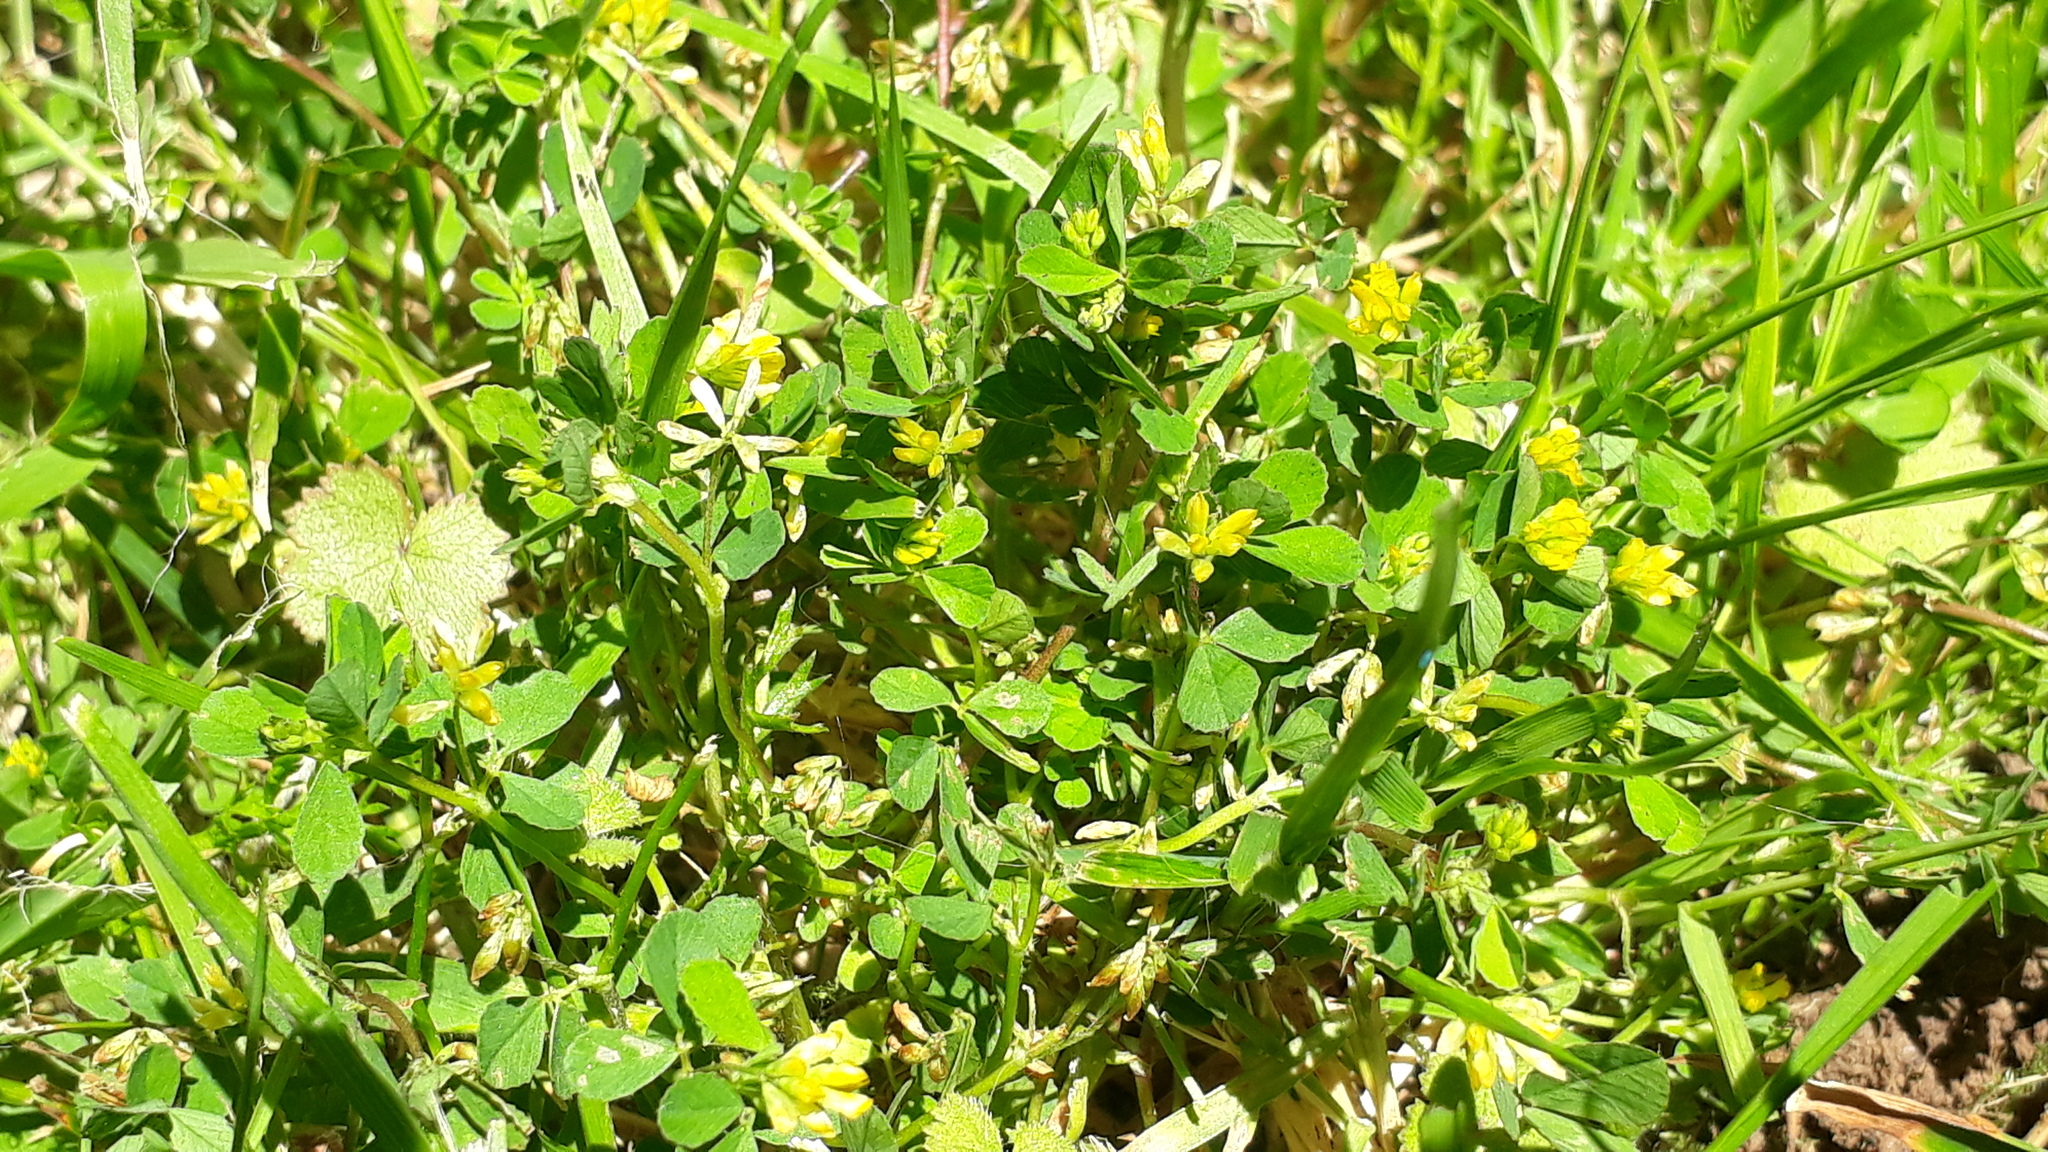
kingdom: Plantae
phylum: Tracheophyta
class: Magnoliopsida
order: Fabales
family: Fabaceae
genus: Trifolium
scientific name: Trifolium dubium
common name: Suckling clover
